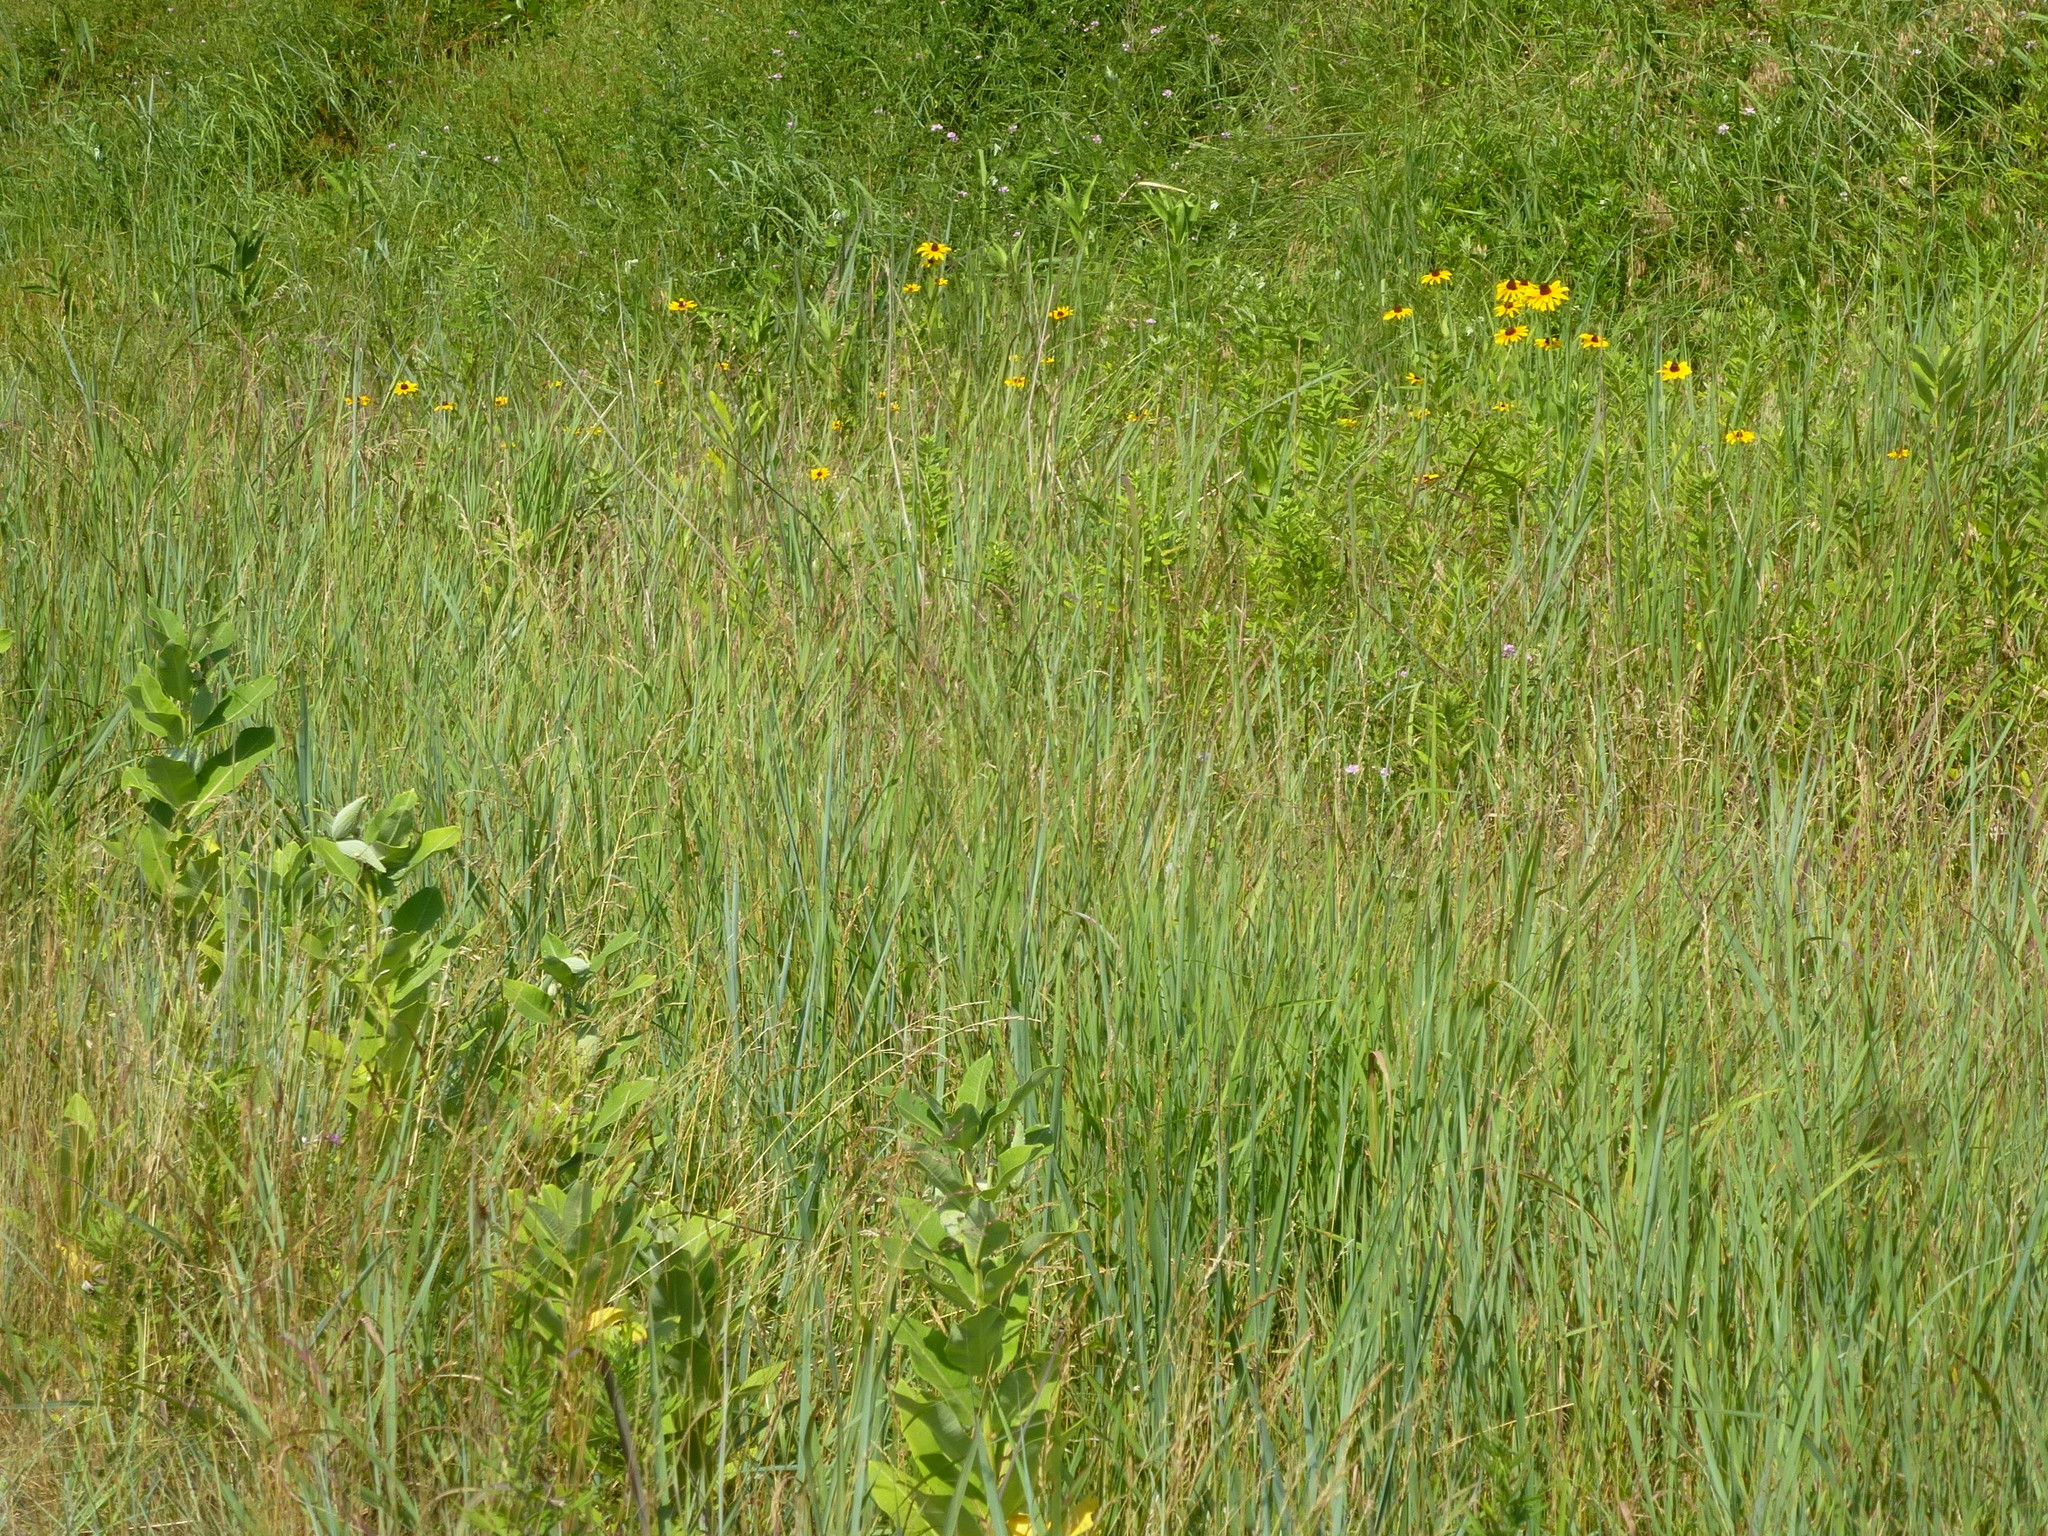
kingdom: Plantae
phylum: Tracheophyta
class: Magnoliopsida
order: Gentianales
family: Apocynaceae
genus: Asclepias
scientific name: Asclepias syriaca
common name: Common milkweed
